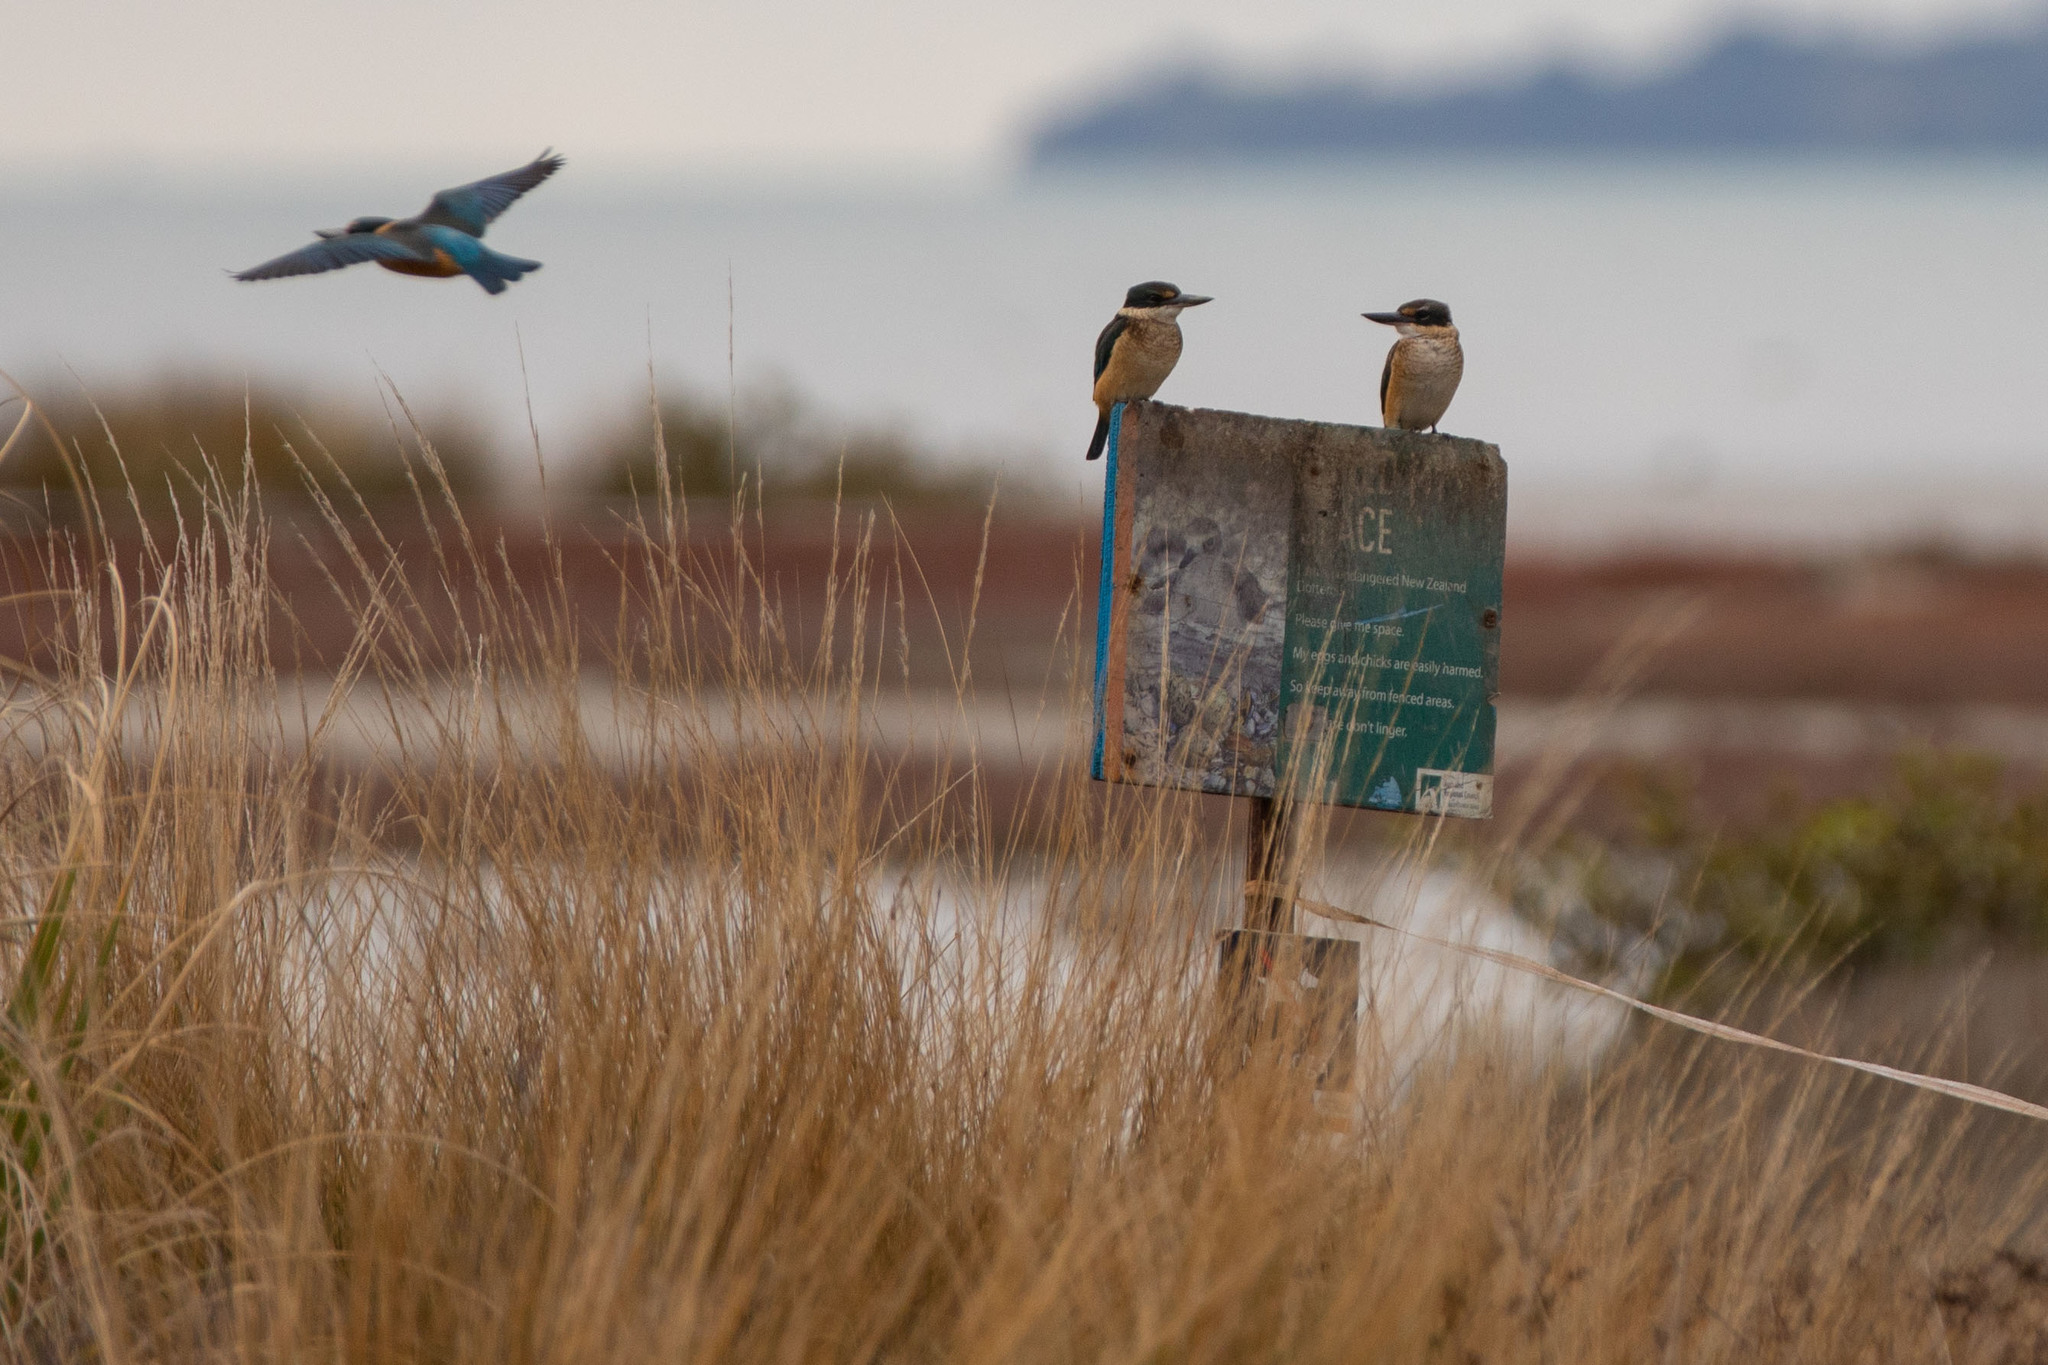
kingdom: Animalia
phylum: Chordata
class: Aves
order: Coraciiformes
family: Alcedinidae
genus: Todiramphus
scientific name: Todiramphus sanctus
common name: Sacred kingfisher
